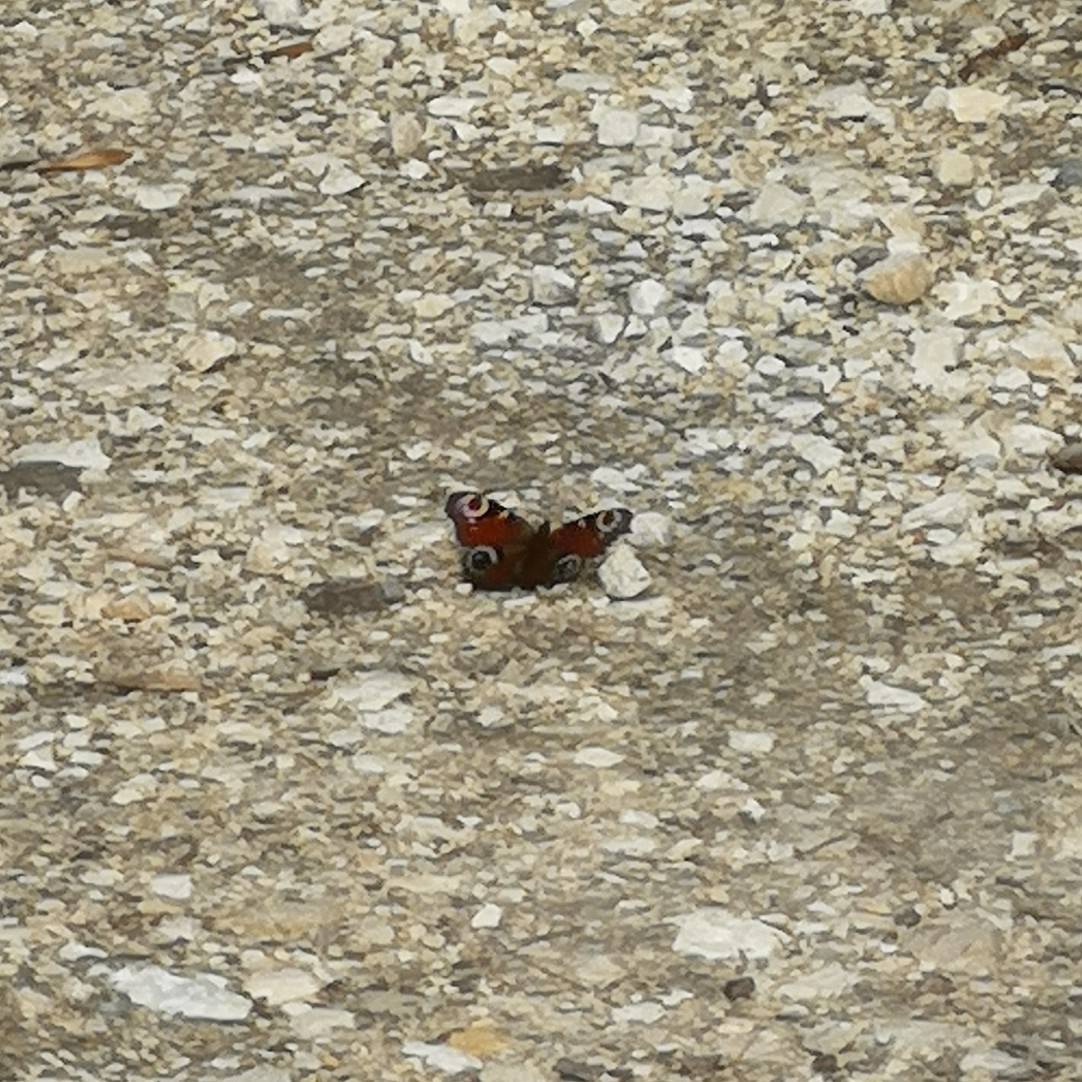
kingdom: Animalia
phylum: Arthropoda
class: Insecta
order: Lepidoptera
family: Nymphalidae
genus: Aglais
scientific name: Aglais io
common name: Peacock
